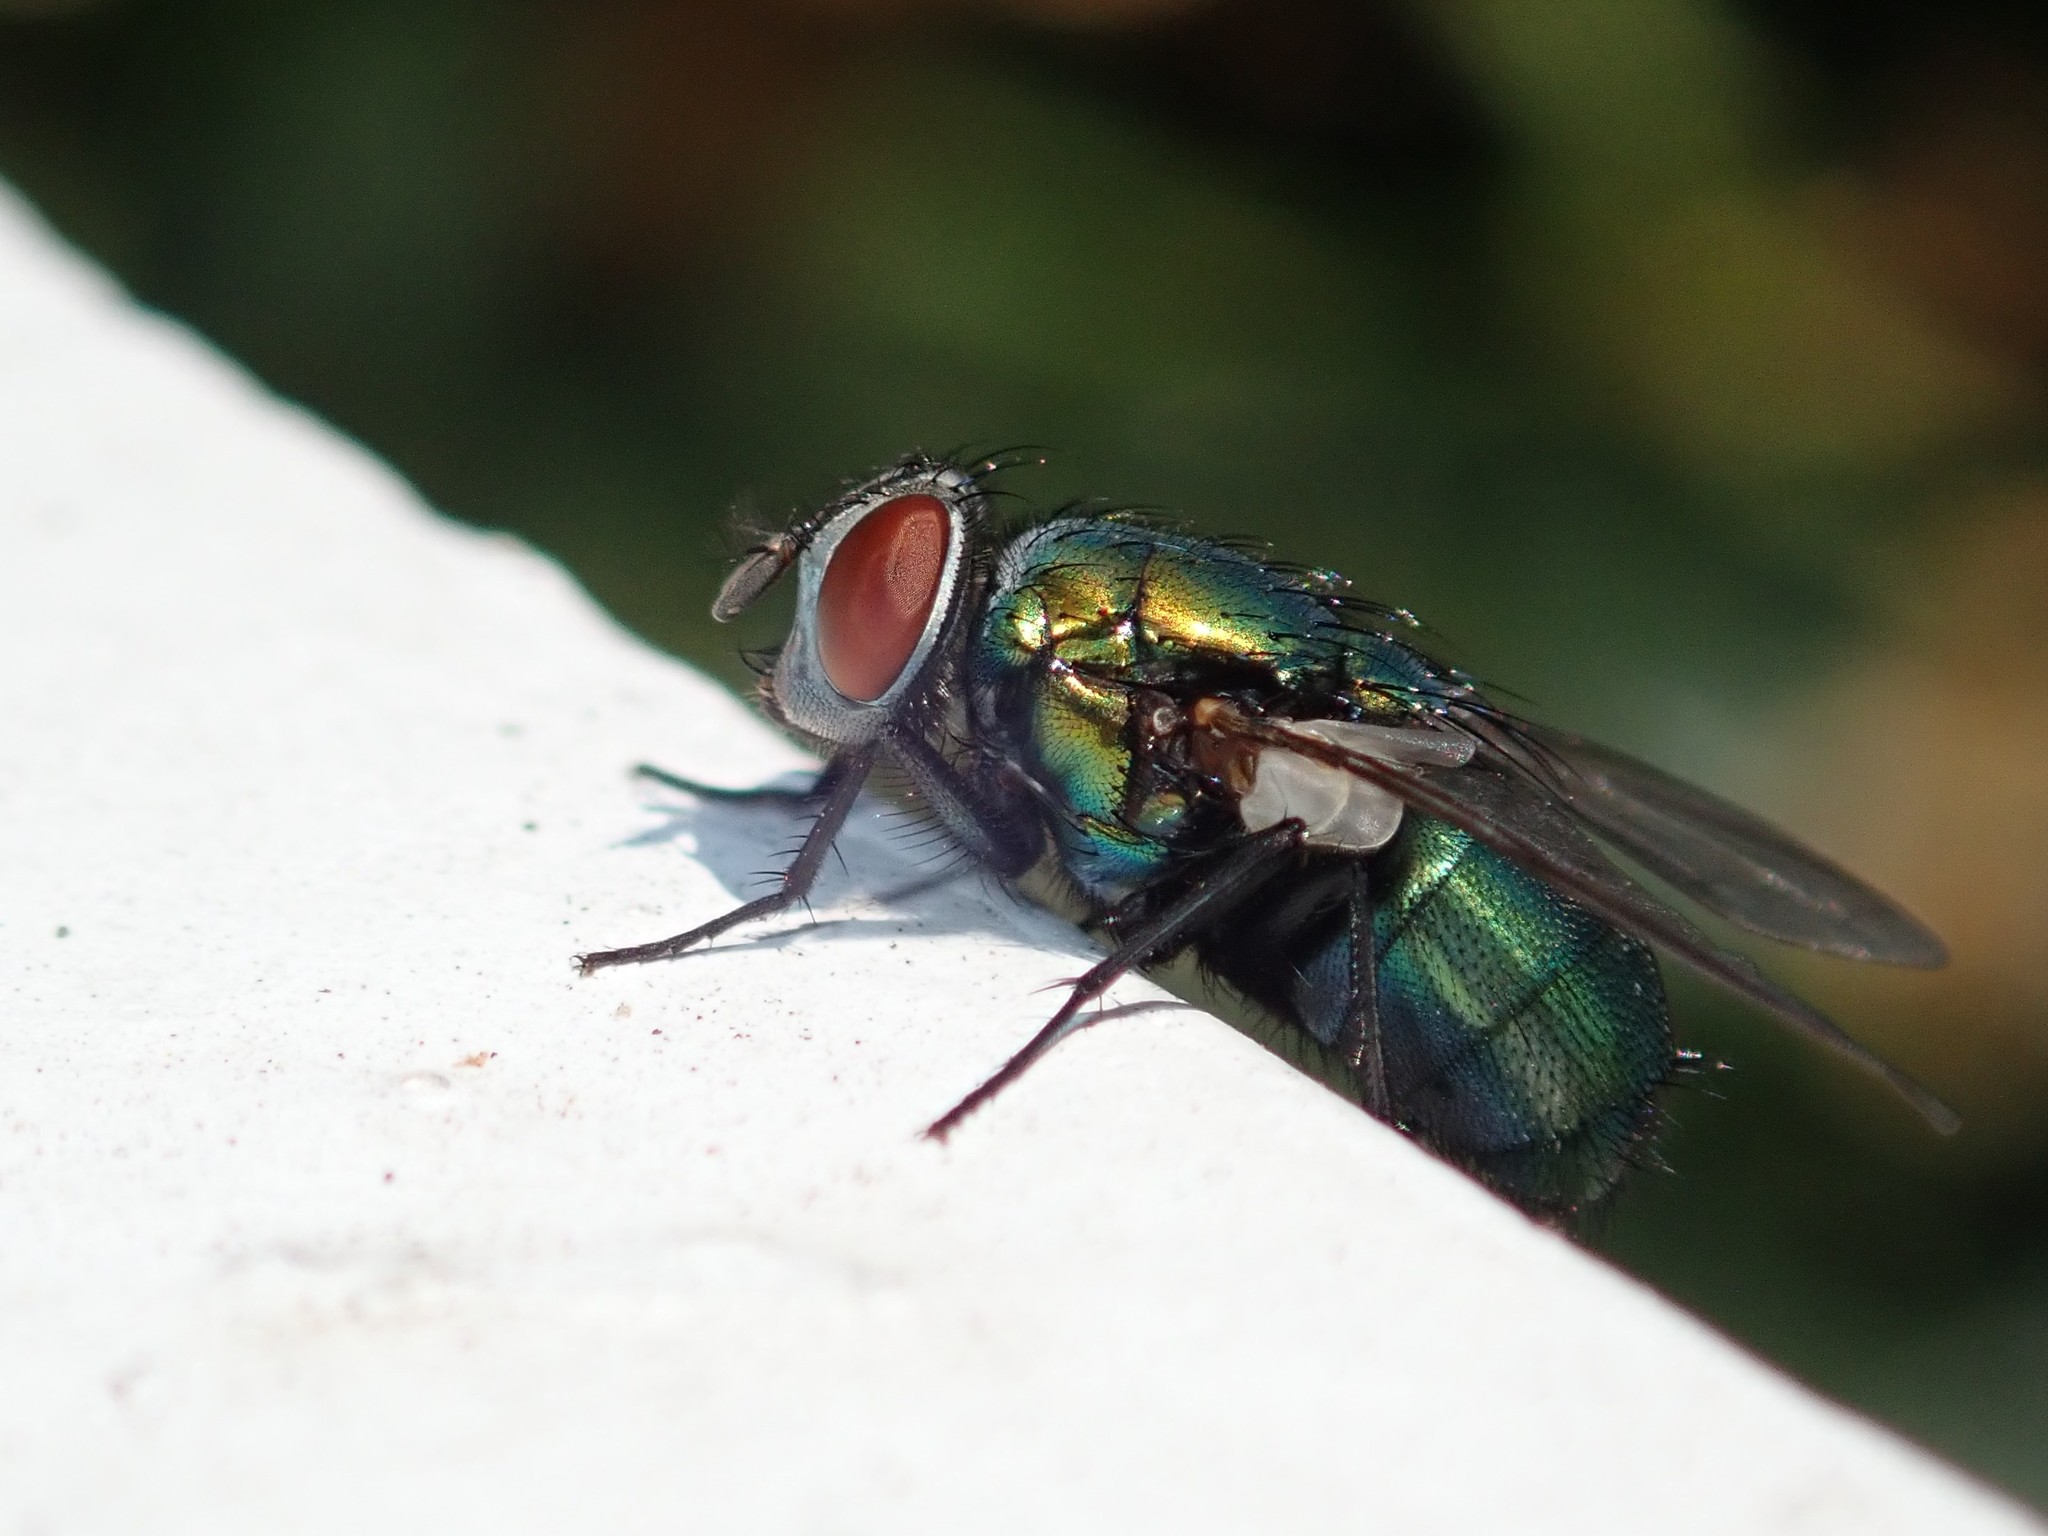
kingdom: Animalia
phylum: Arthropoda
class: Insecta
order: Diptera
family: Calliphoridae
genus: Lucilia
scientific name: Lucilia sericata
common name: Blow fly
